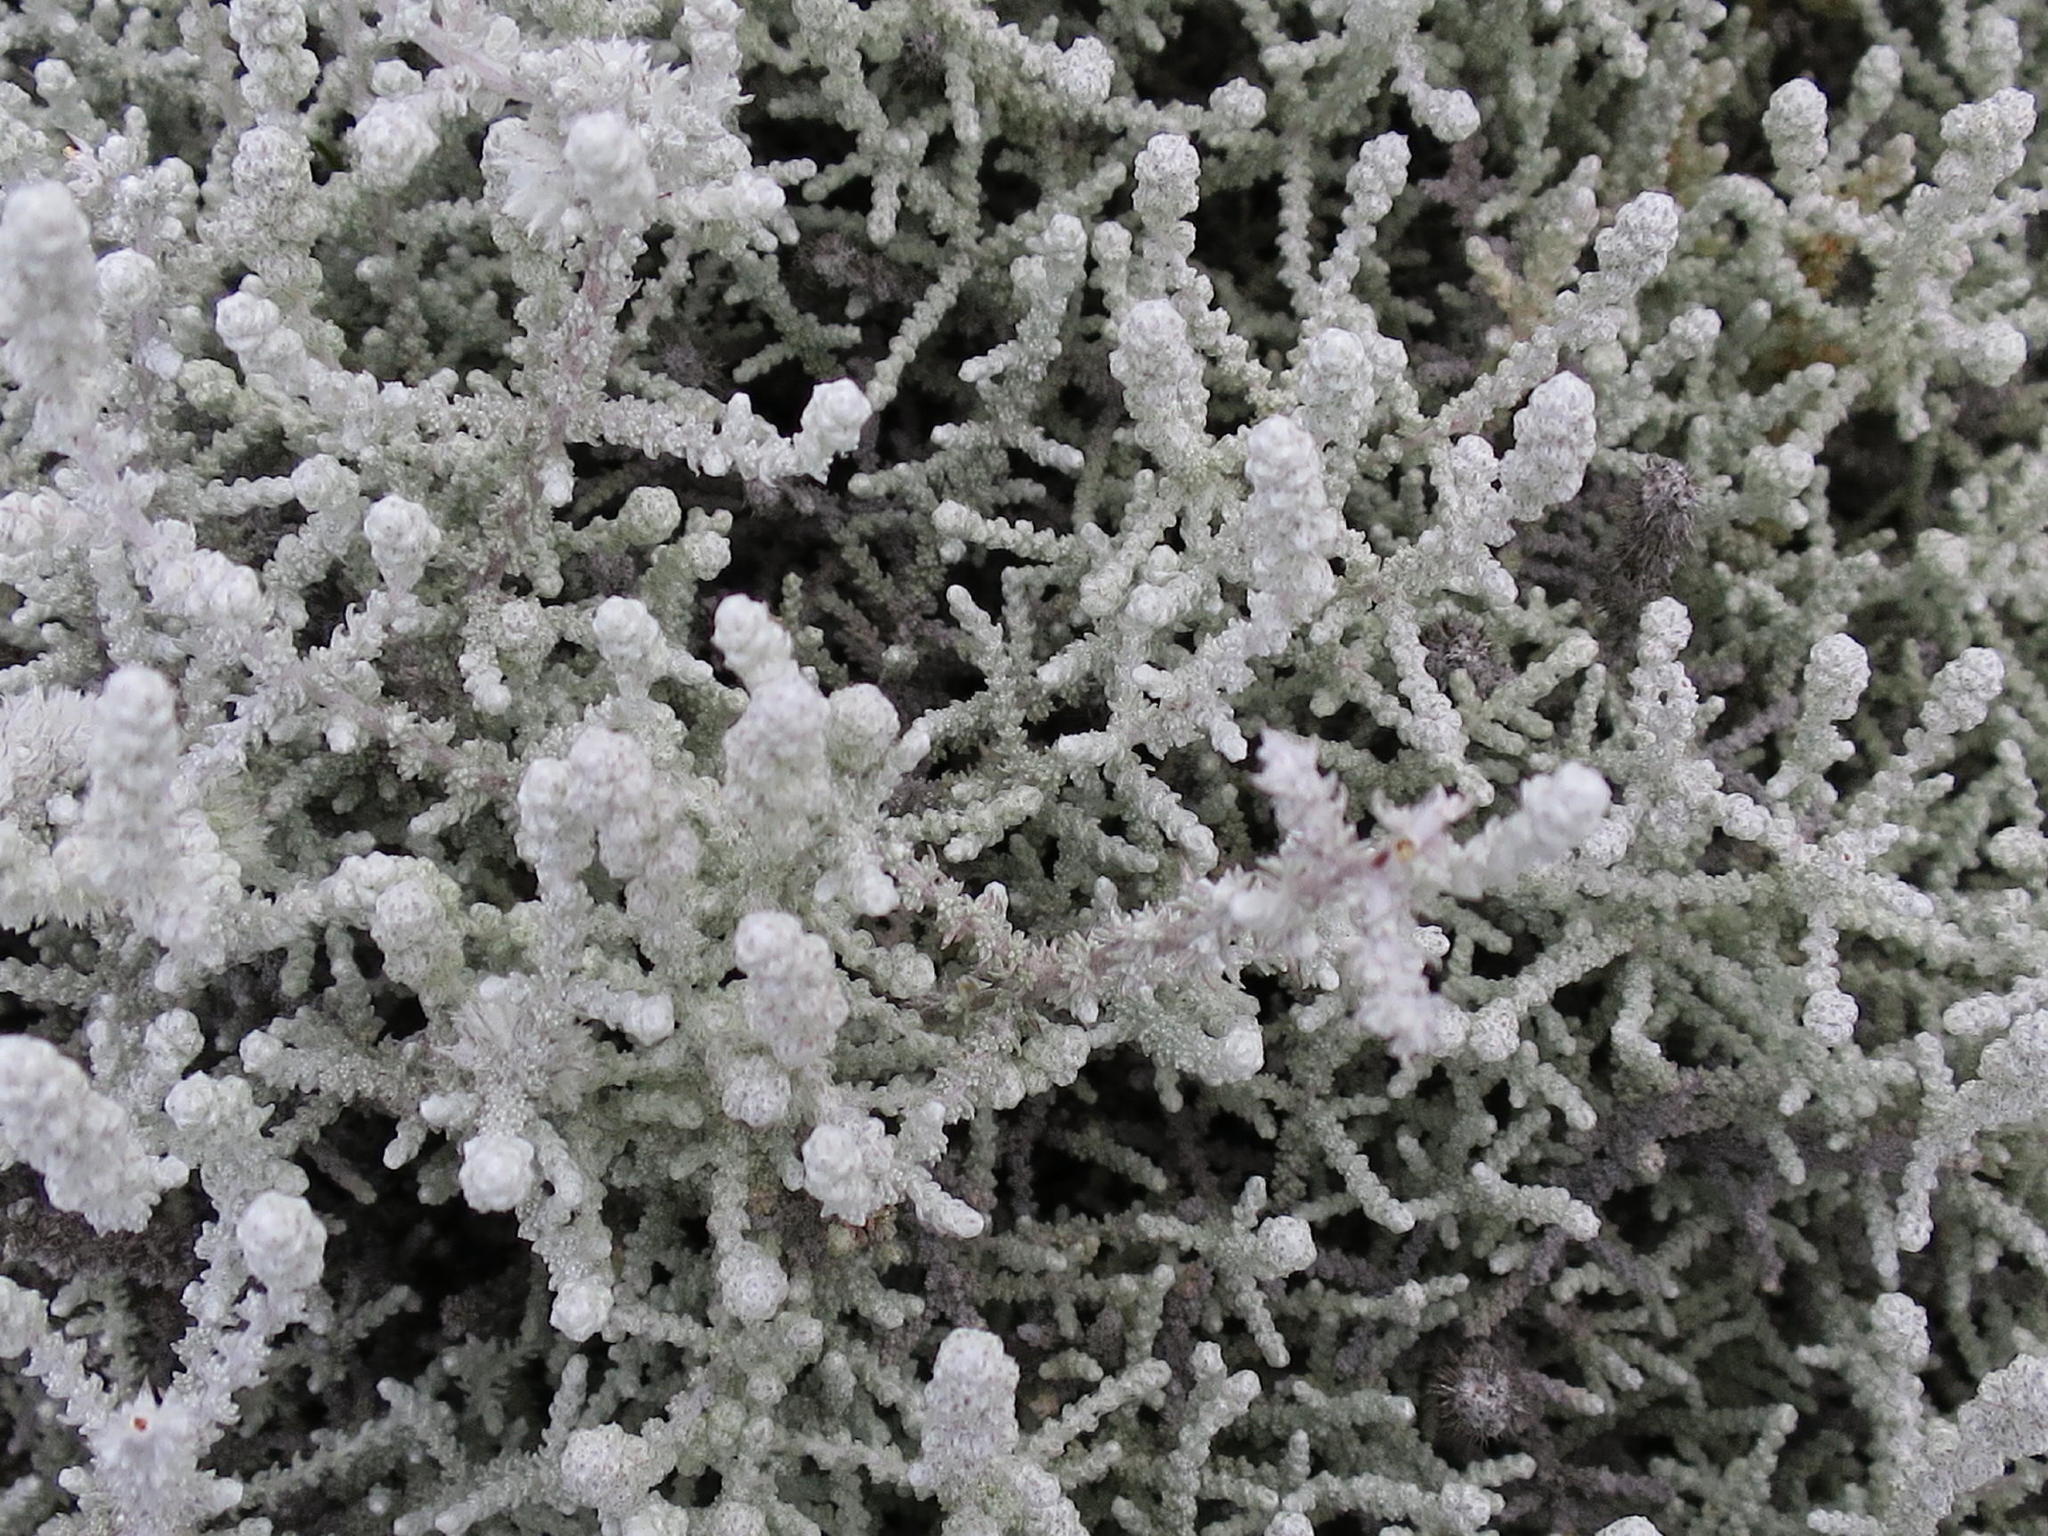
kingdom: Plantae
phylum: Tracheophyta
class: Magnoliopsida
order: Asterales
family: Asteraceae
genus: Seriphium
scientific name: Seriphium plumosum
